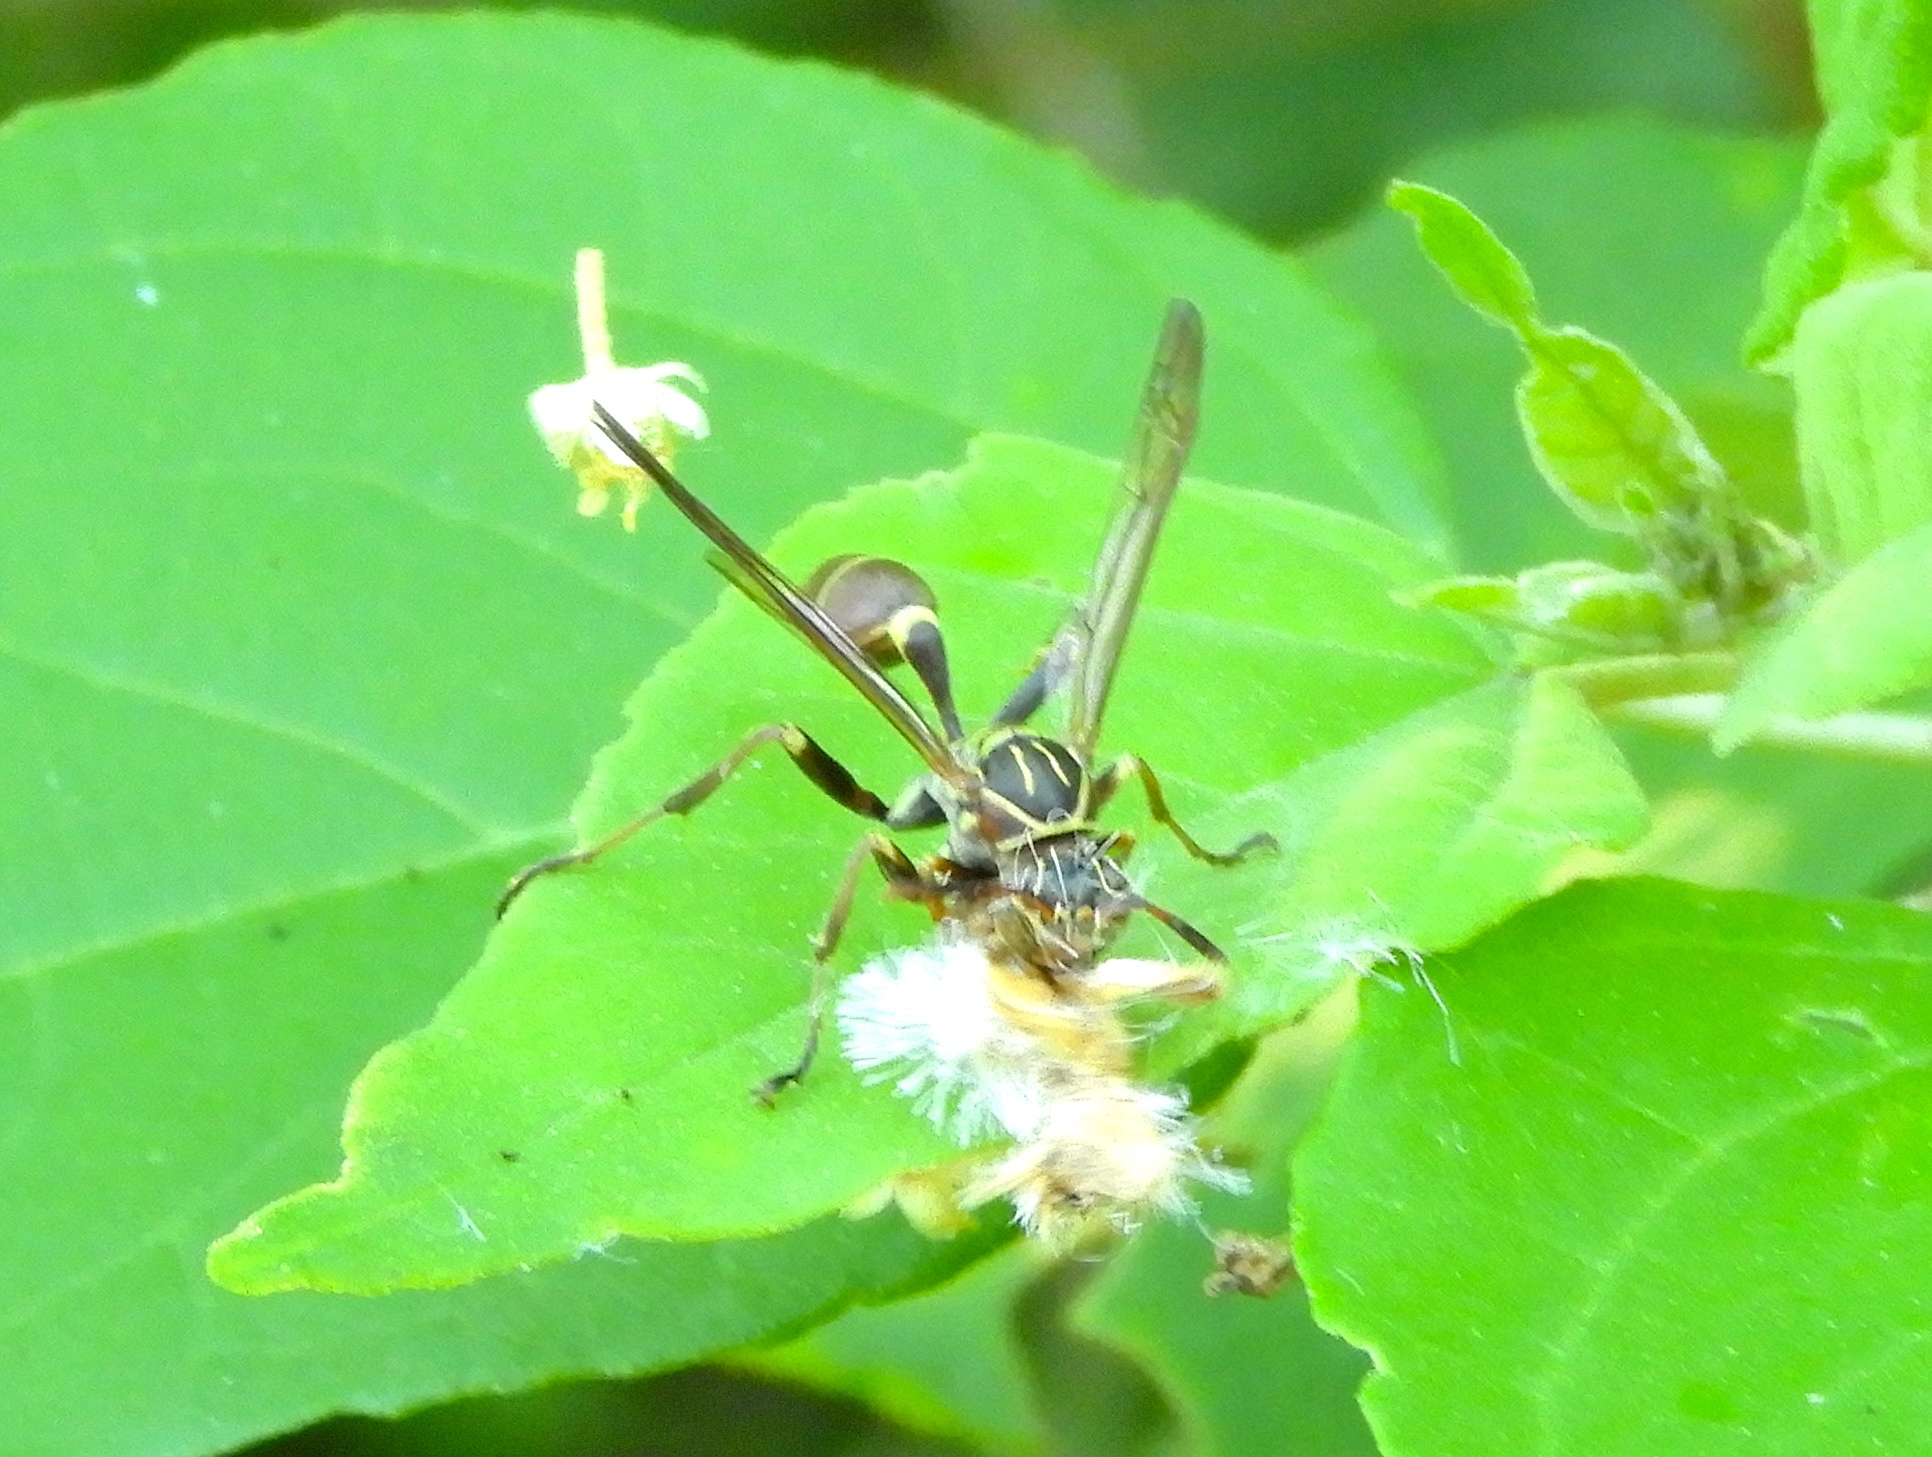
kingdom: Animalia
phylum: Arthropoda
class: Insecta
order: Hymenoptera
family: Vespidae
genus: Mischocyttarus
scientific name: Mischocyttarus mexicanus
